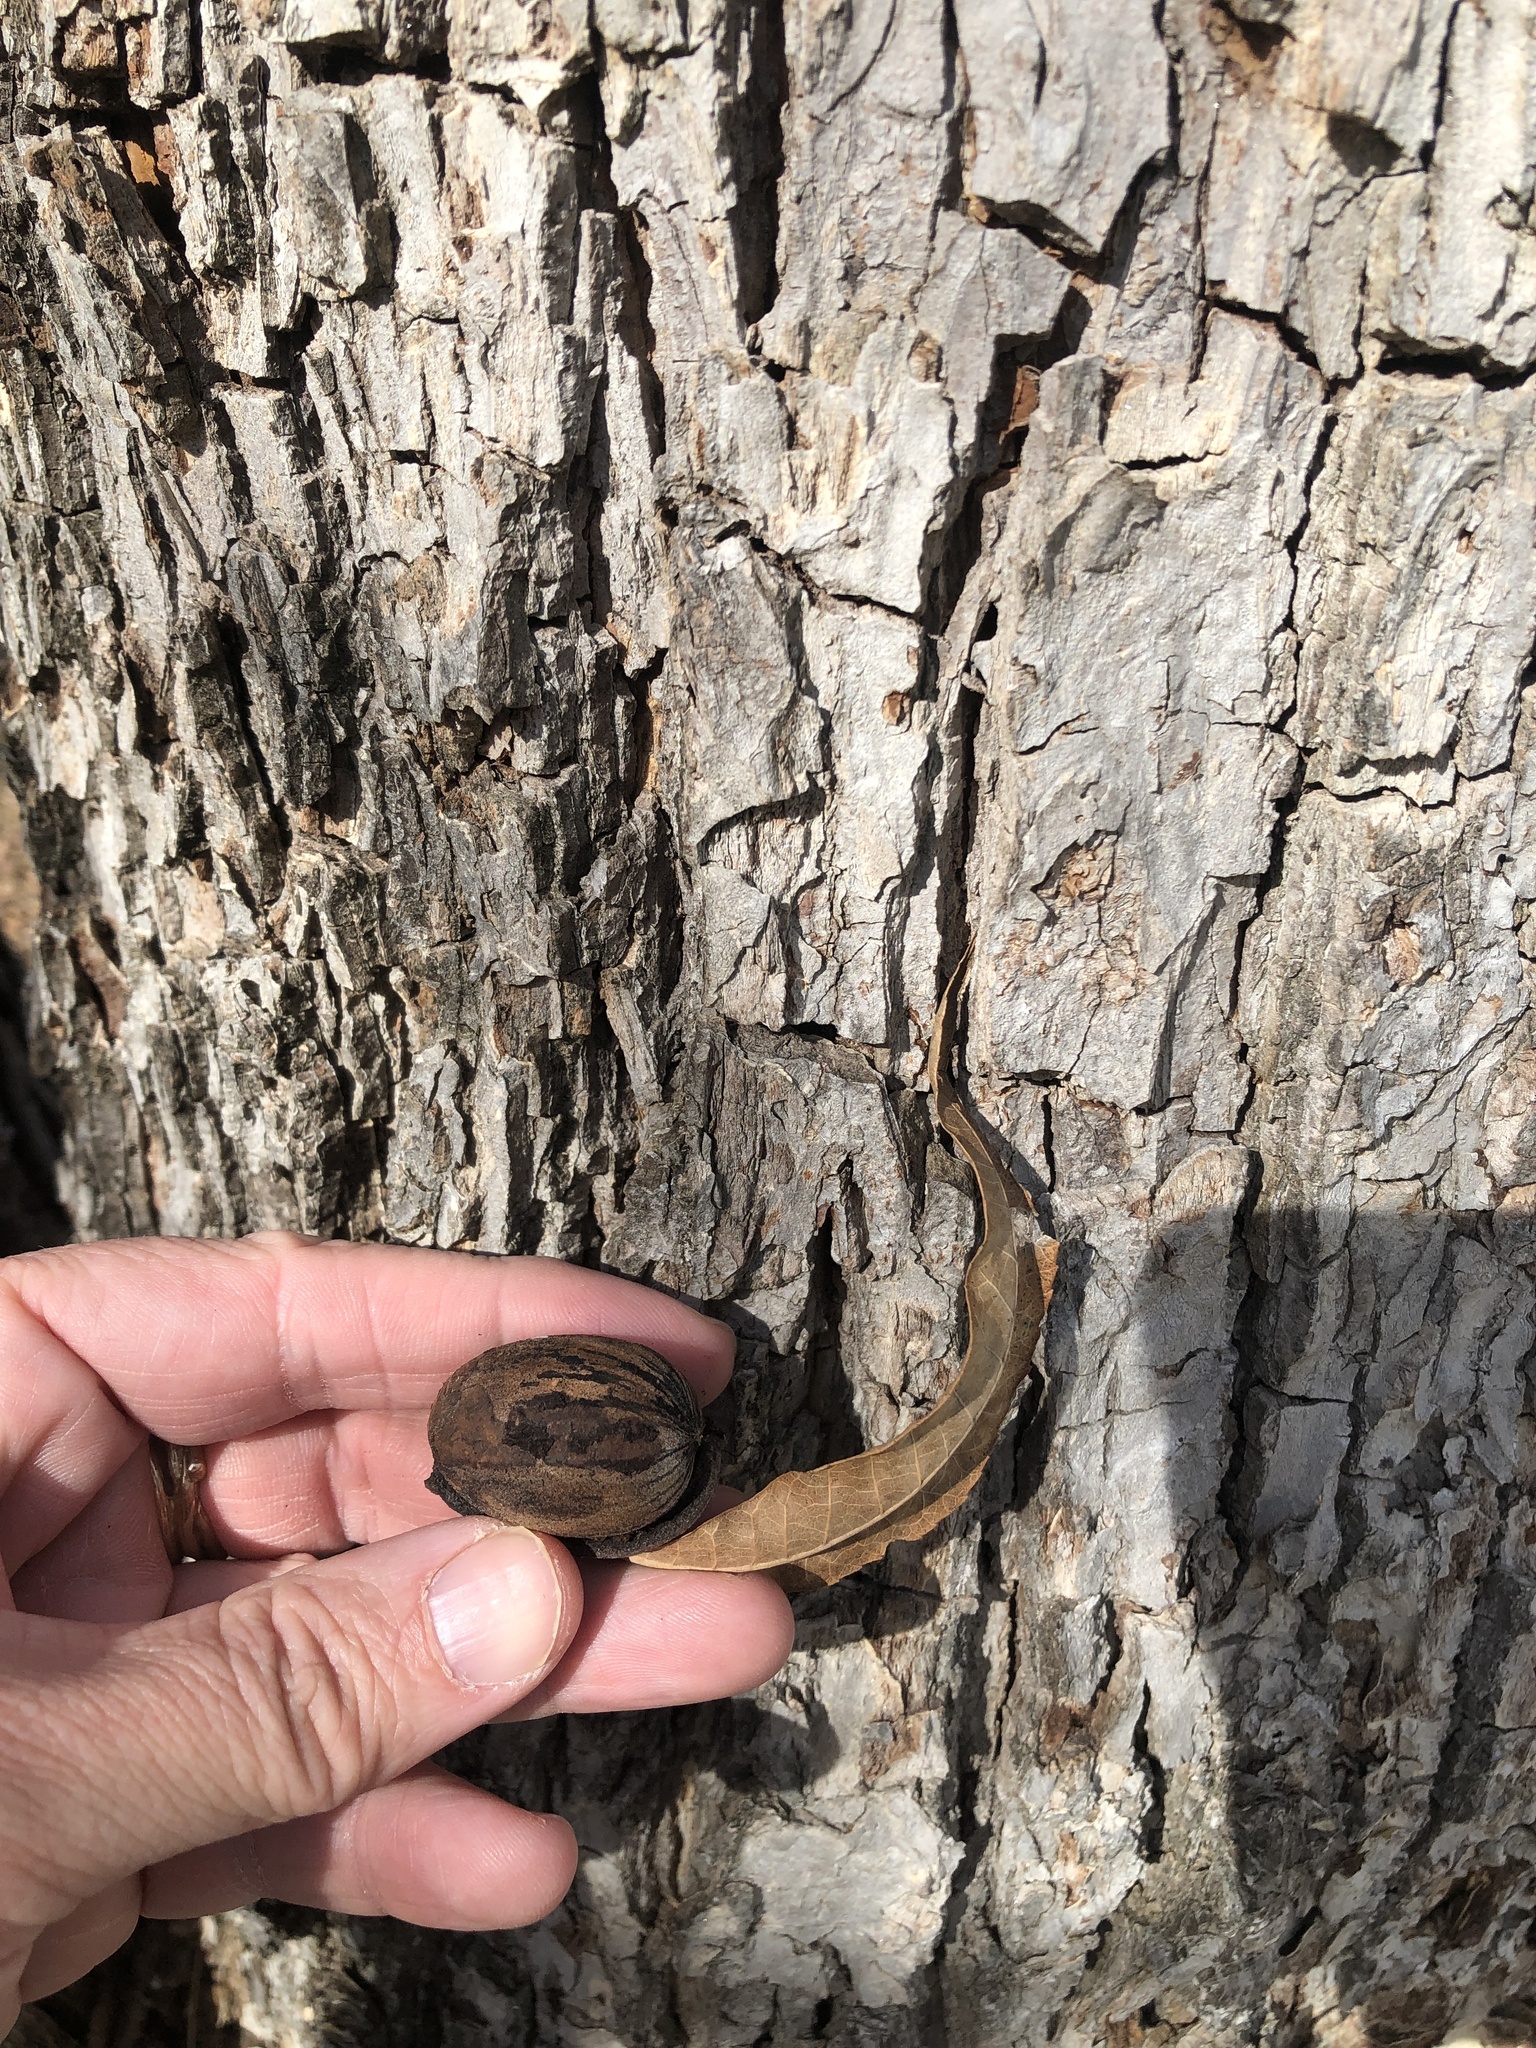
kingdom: Plantae
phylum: Tracheophyta
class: Magnoliopsida
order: Fagales
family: Juglandaceae
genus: Carya
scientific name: Carya illinoinensis
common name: Pecan
